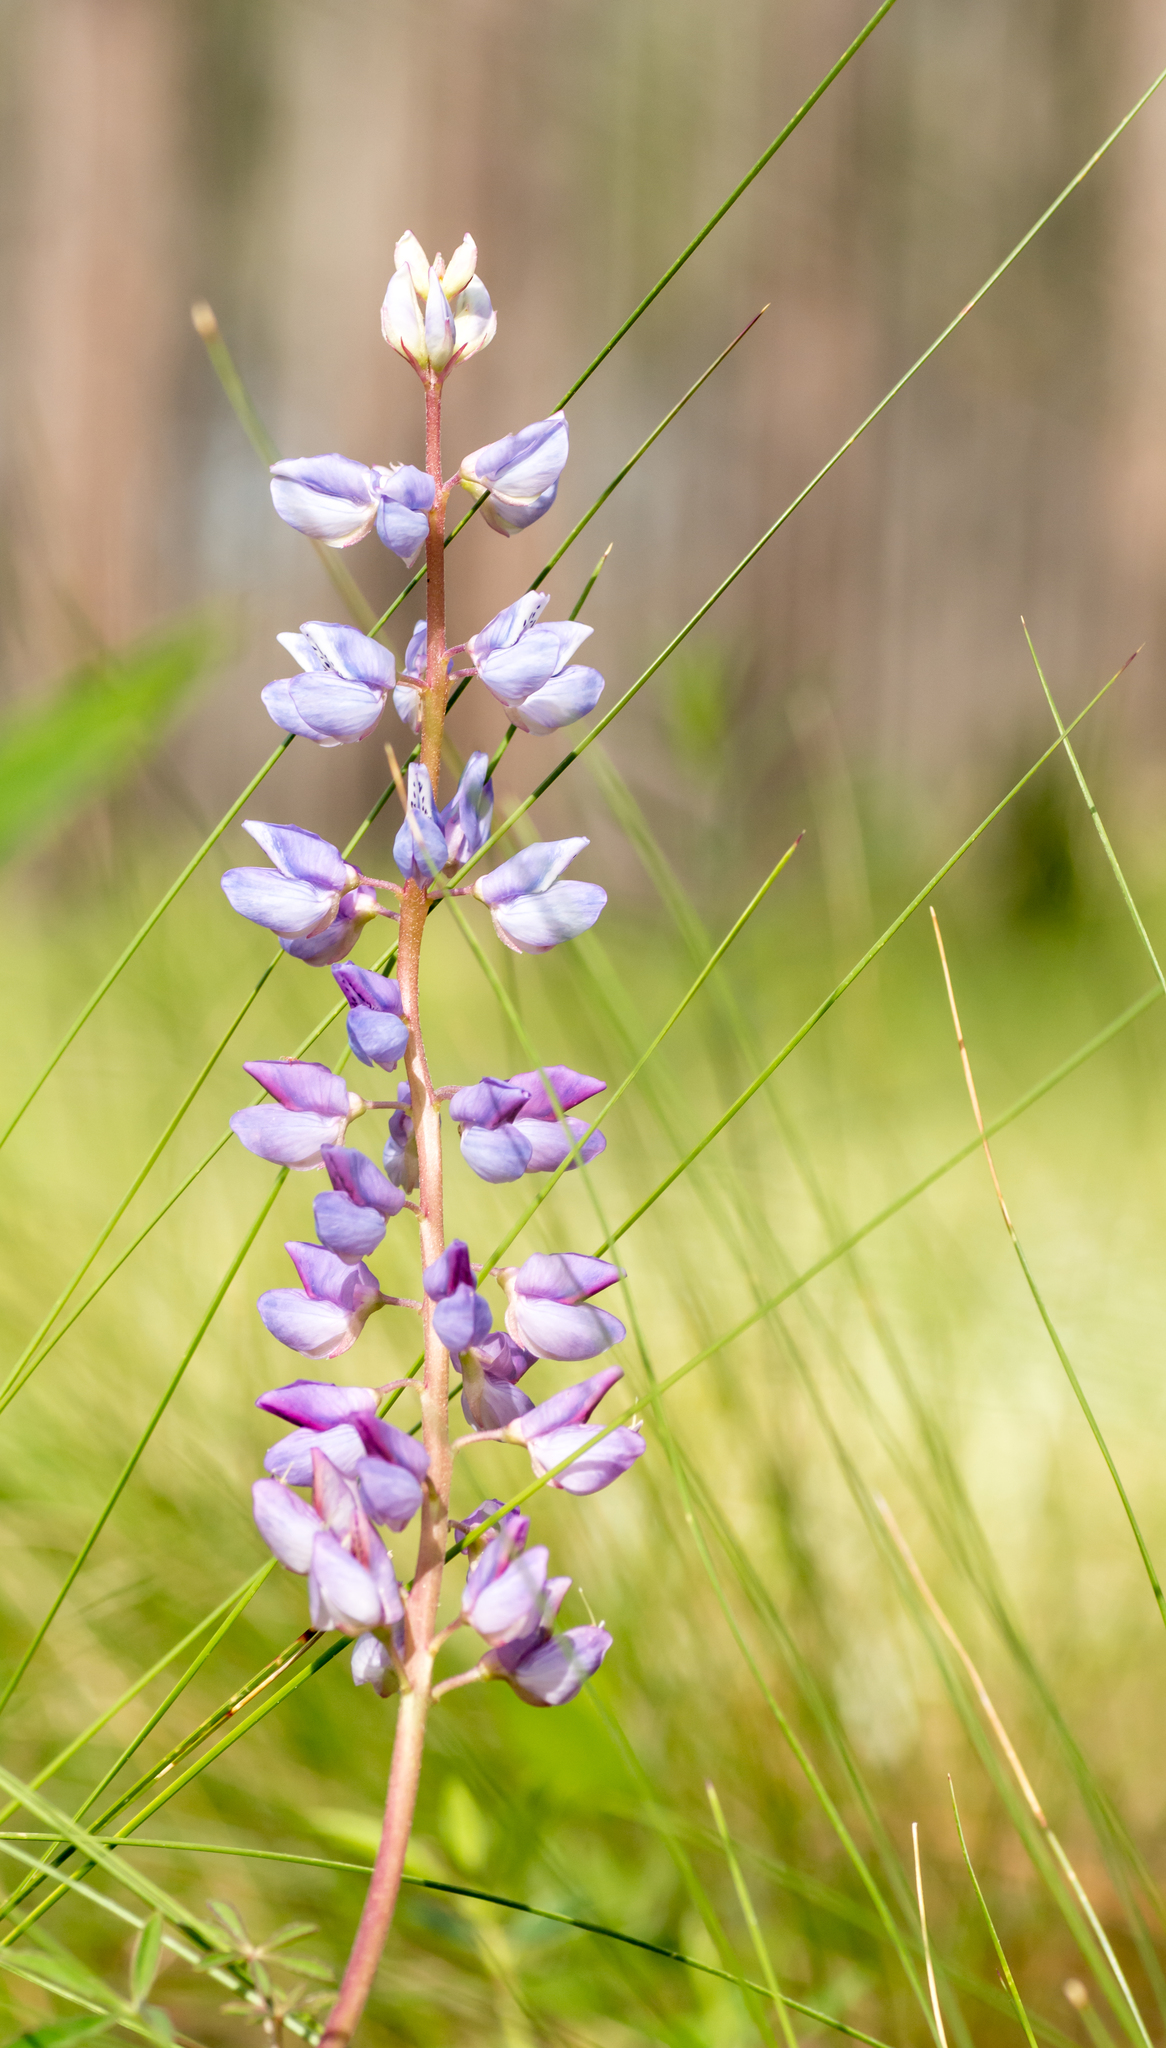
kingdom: Plantae
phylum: Tracheophyta
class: Magnoliopsida
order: Fabales
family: Fabaceae
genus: Lupinus
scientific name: Lupinus perennis
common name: Sundial lupine
